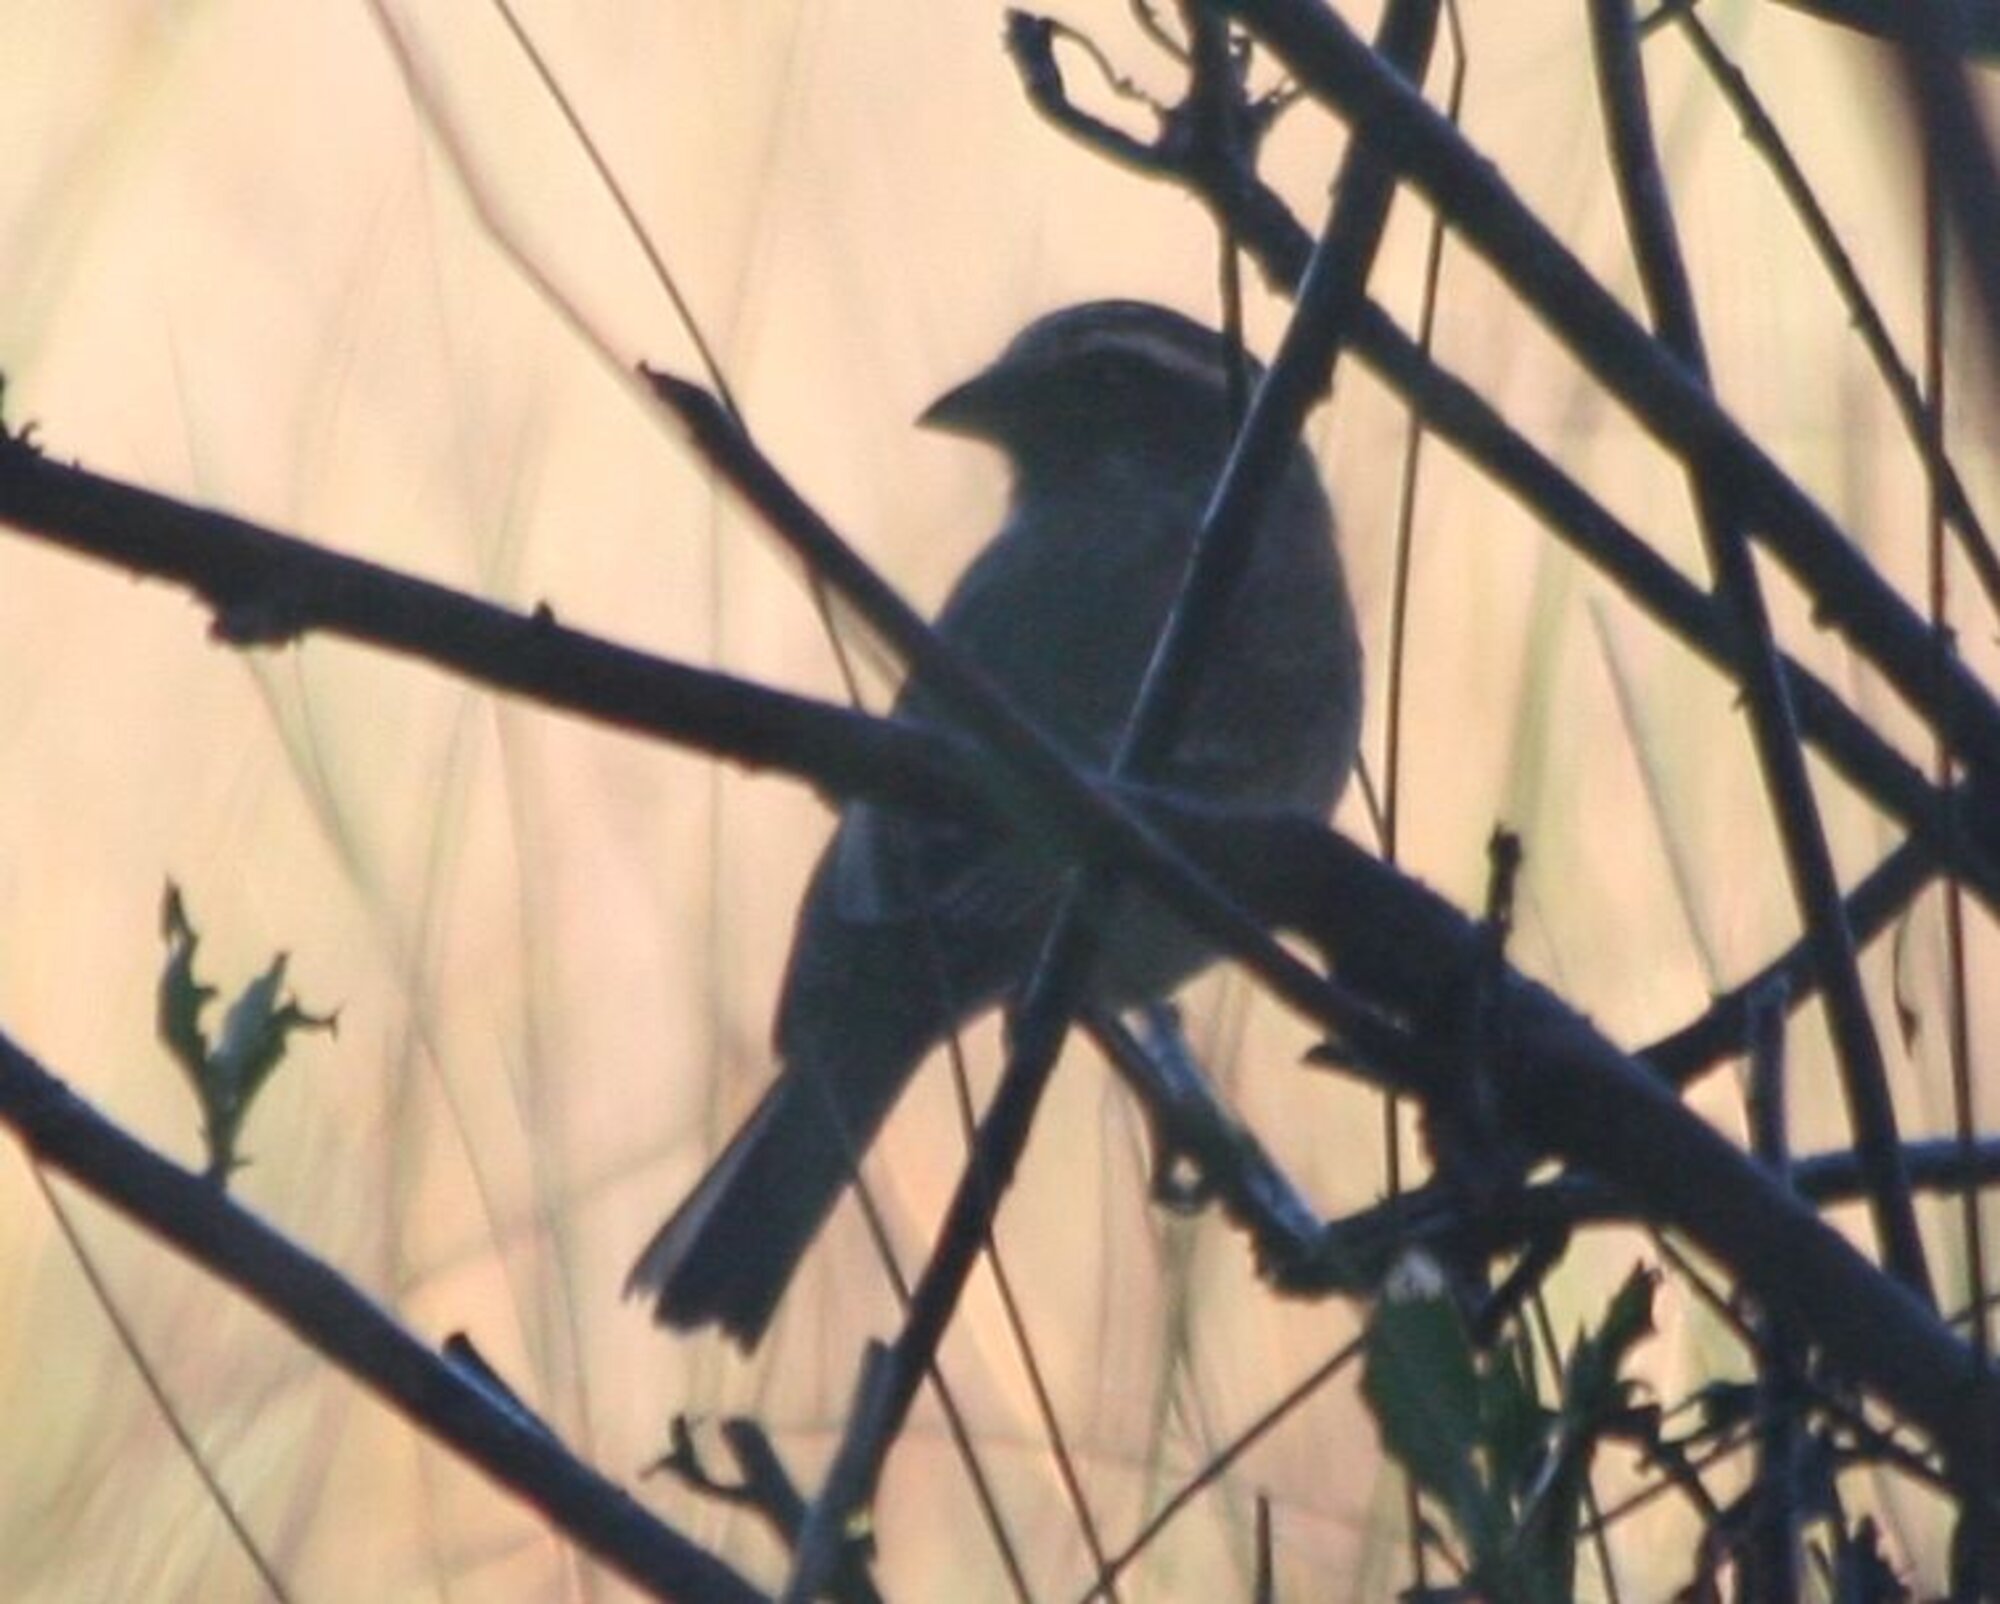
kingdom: Animalia
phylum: Chordata
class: Aves
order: Passeriformes
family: Fringillidae
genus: Crithagra
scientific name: Crithagra gularis
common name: Streaky-headed seedeater
